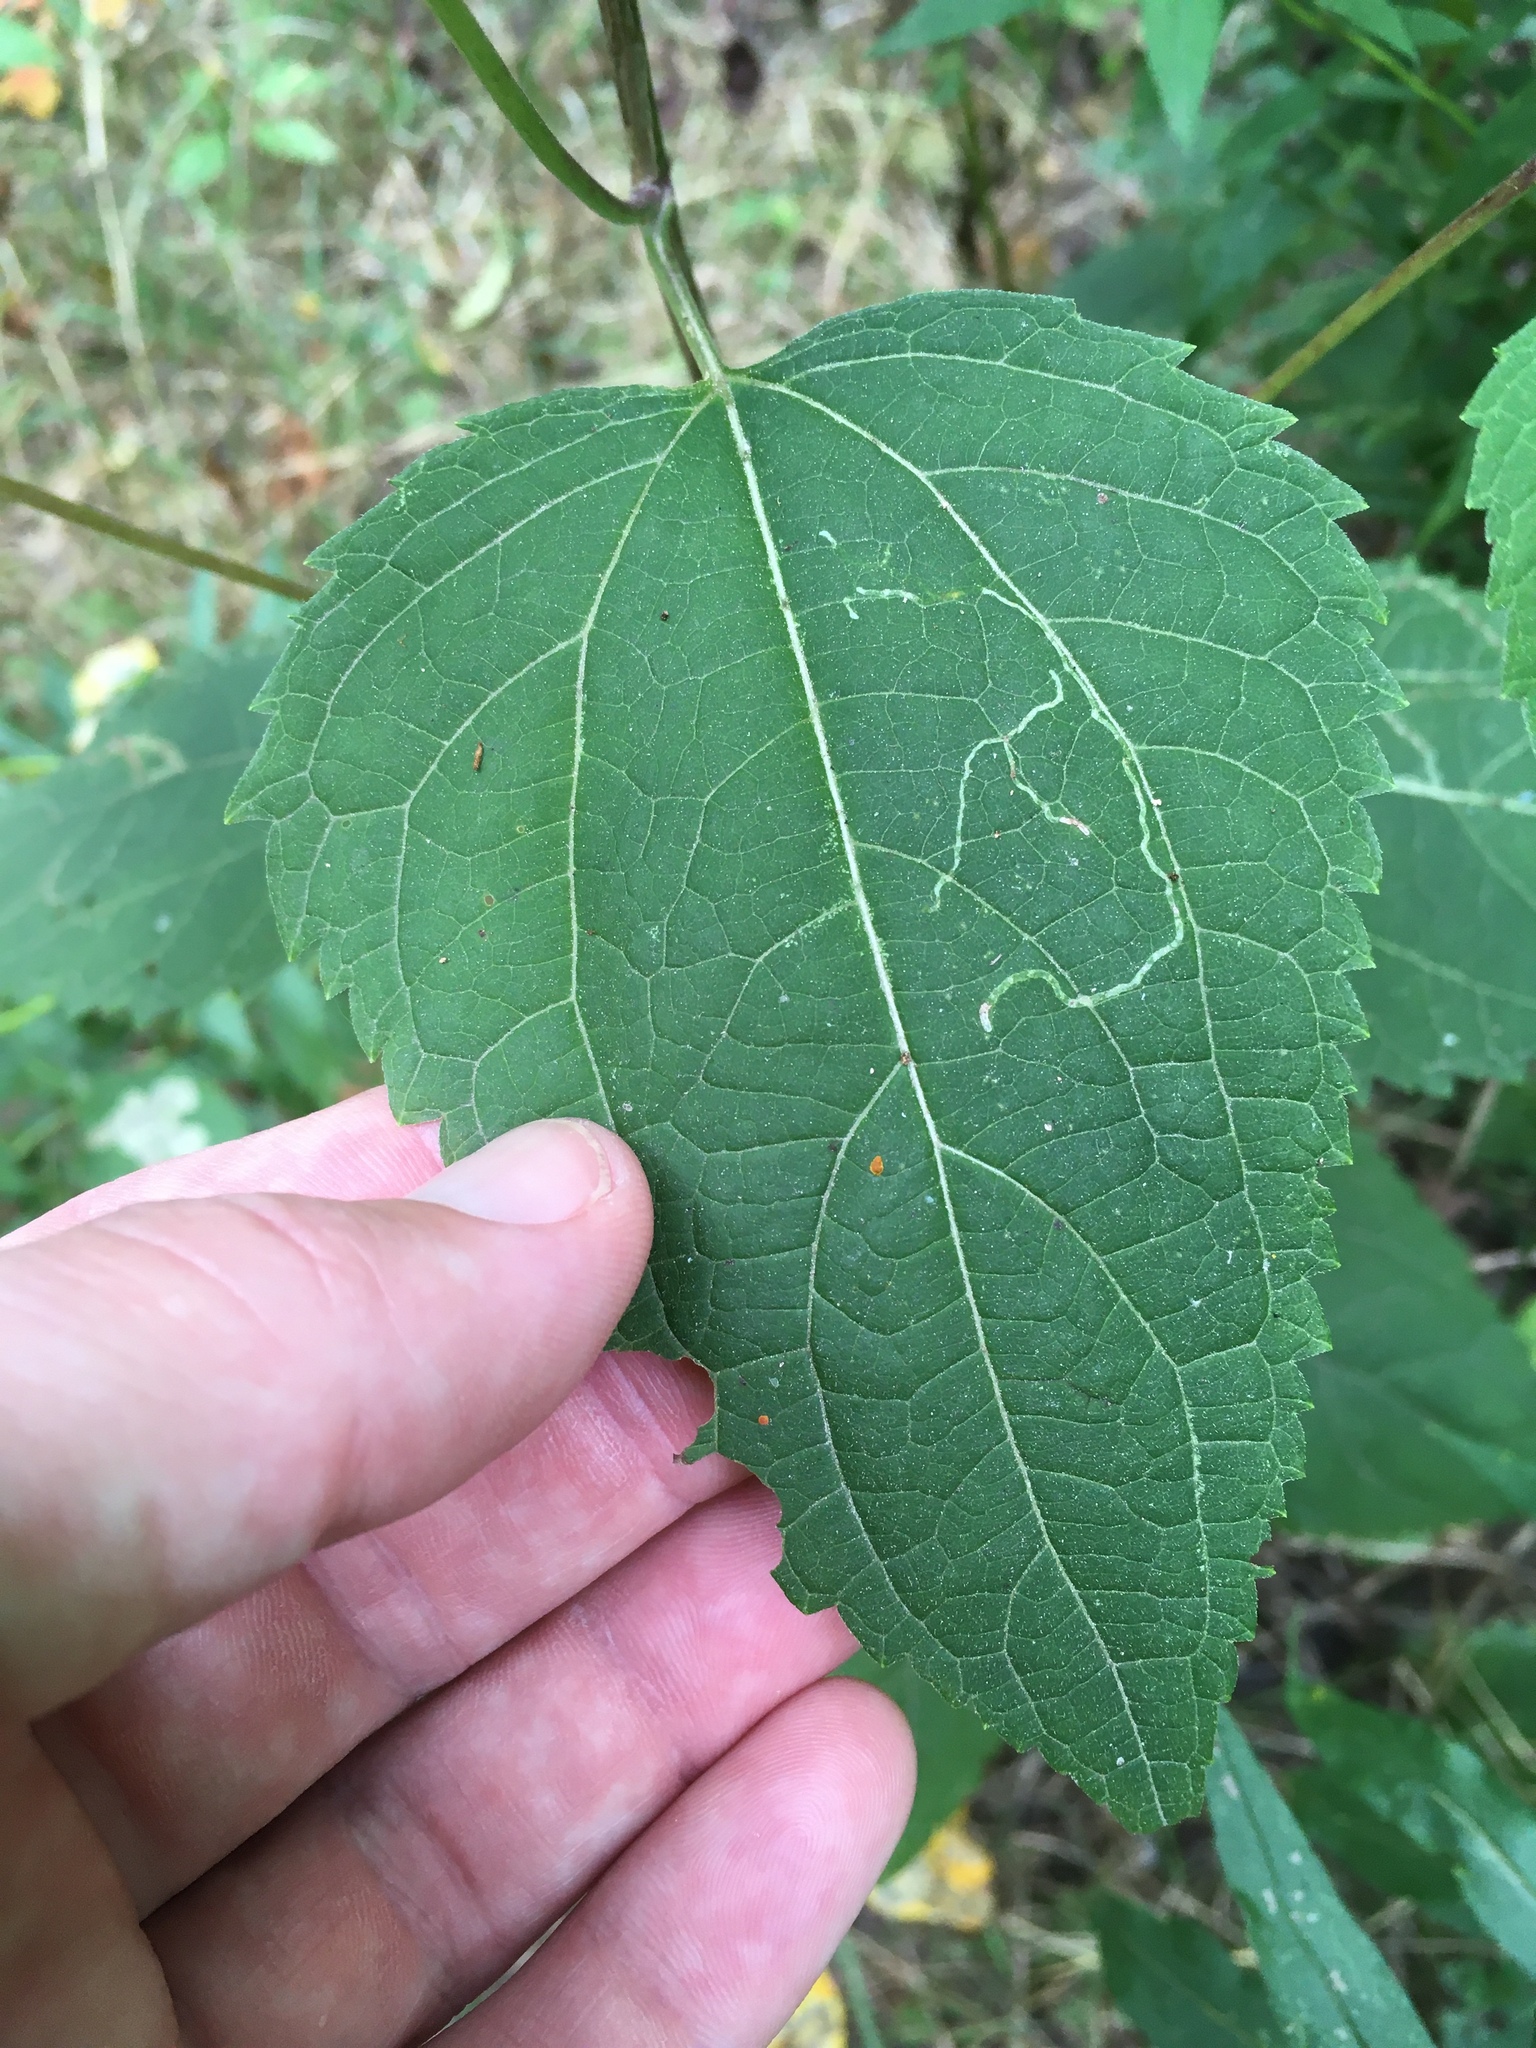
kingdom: Plantae
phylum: Tracheophyta
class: Magnoliopsida
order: Asterales
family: Asteraceae
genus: Ageratina
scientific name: Ageratina altissima
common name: White snakeroot
